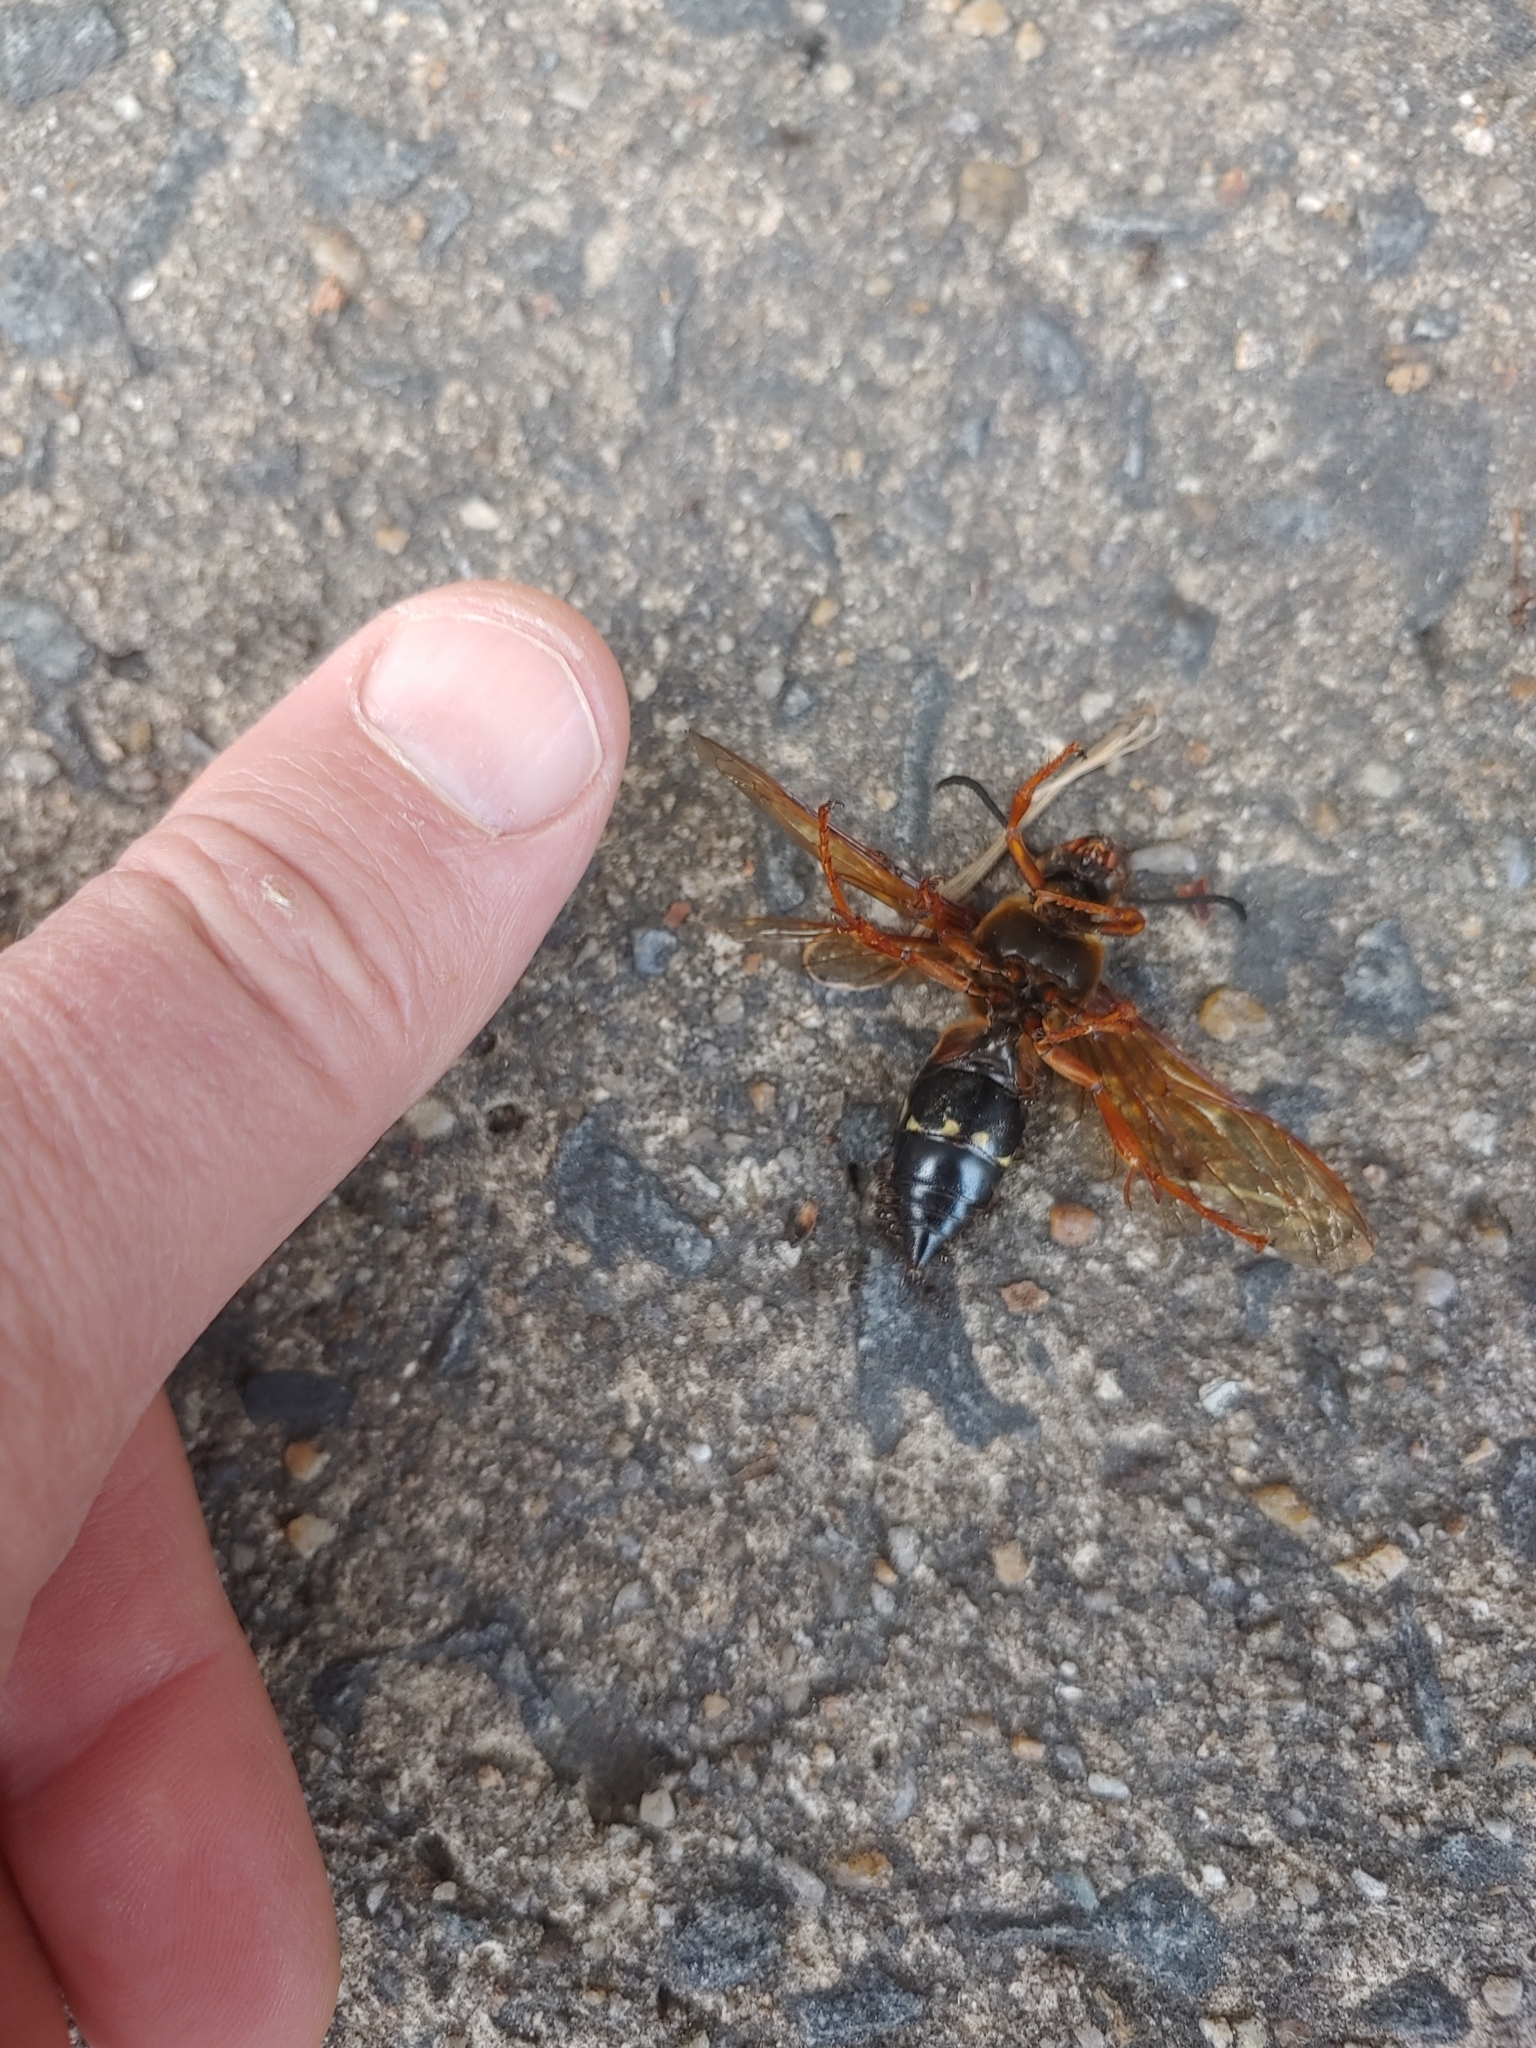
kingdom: Animalia
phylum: Arthropoda
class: Insecta
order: Hymenoptera
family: Crabronidae
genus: Sphecius
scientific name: Sphecius speciosus
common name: Cicada killer
